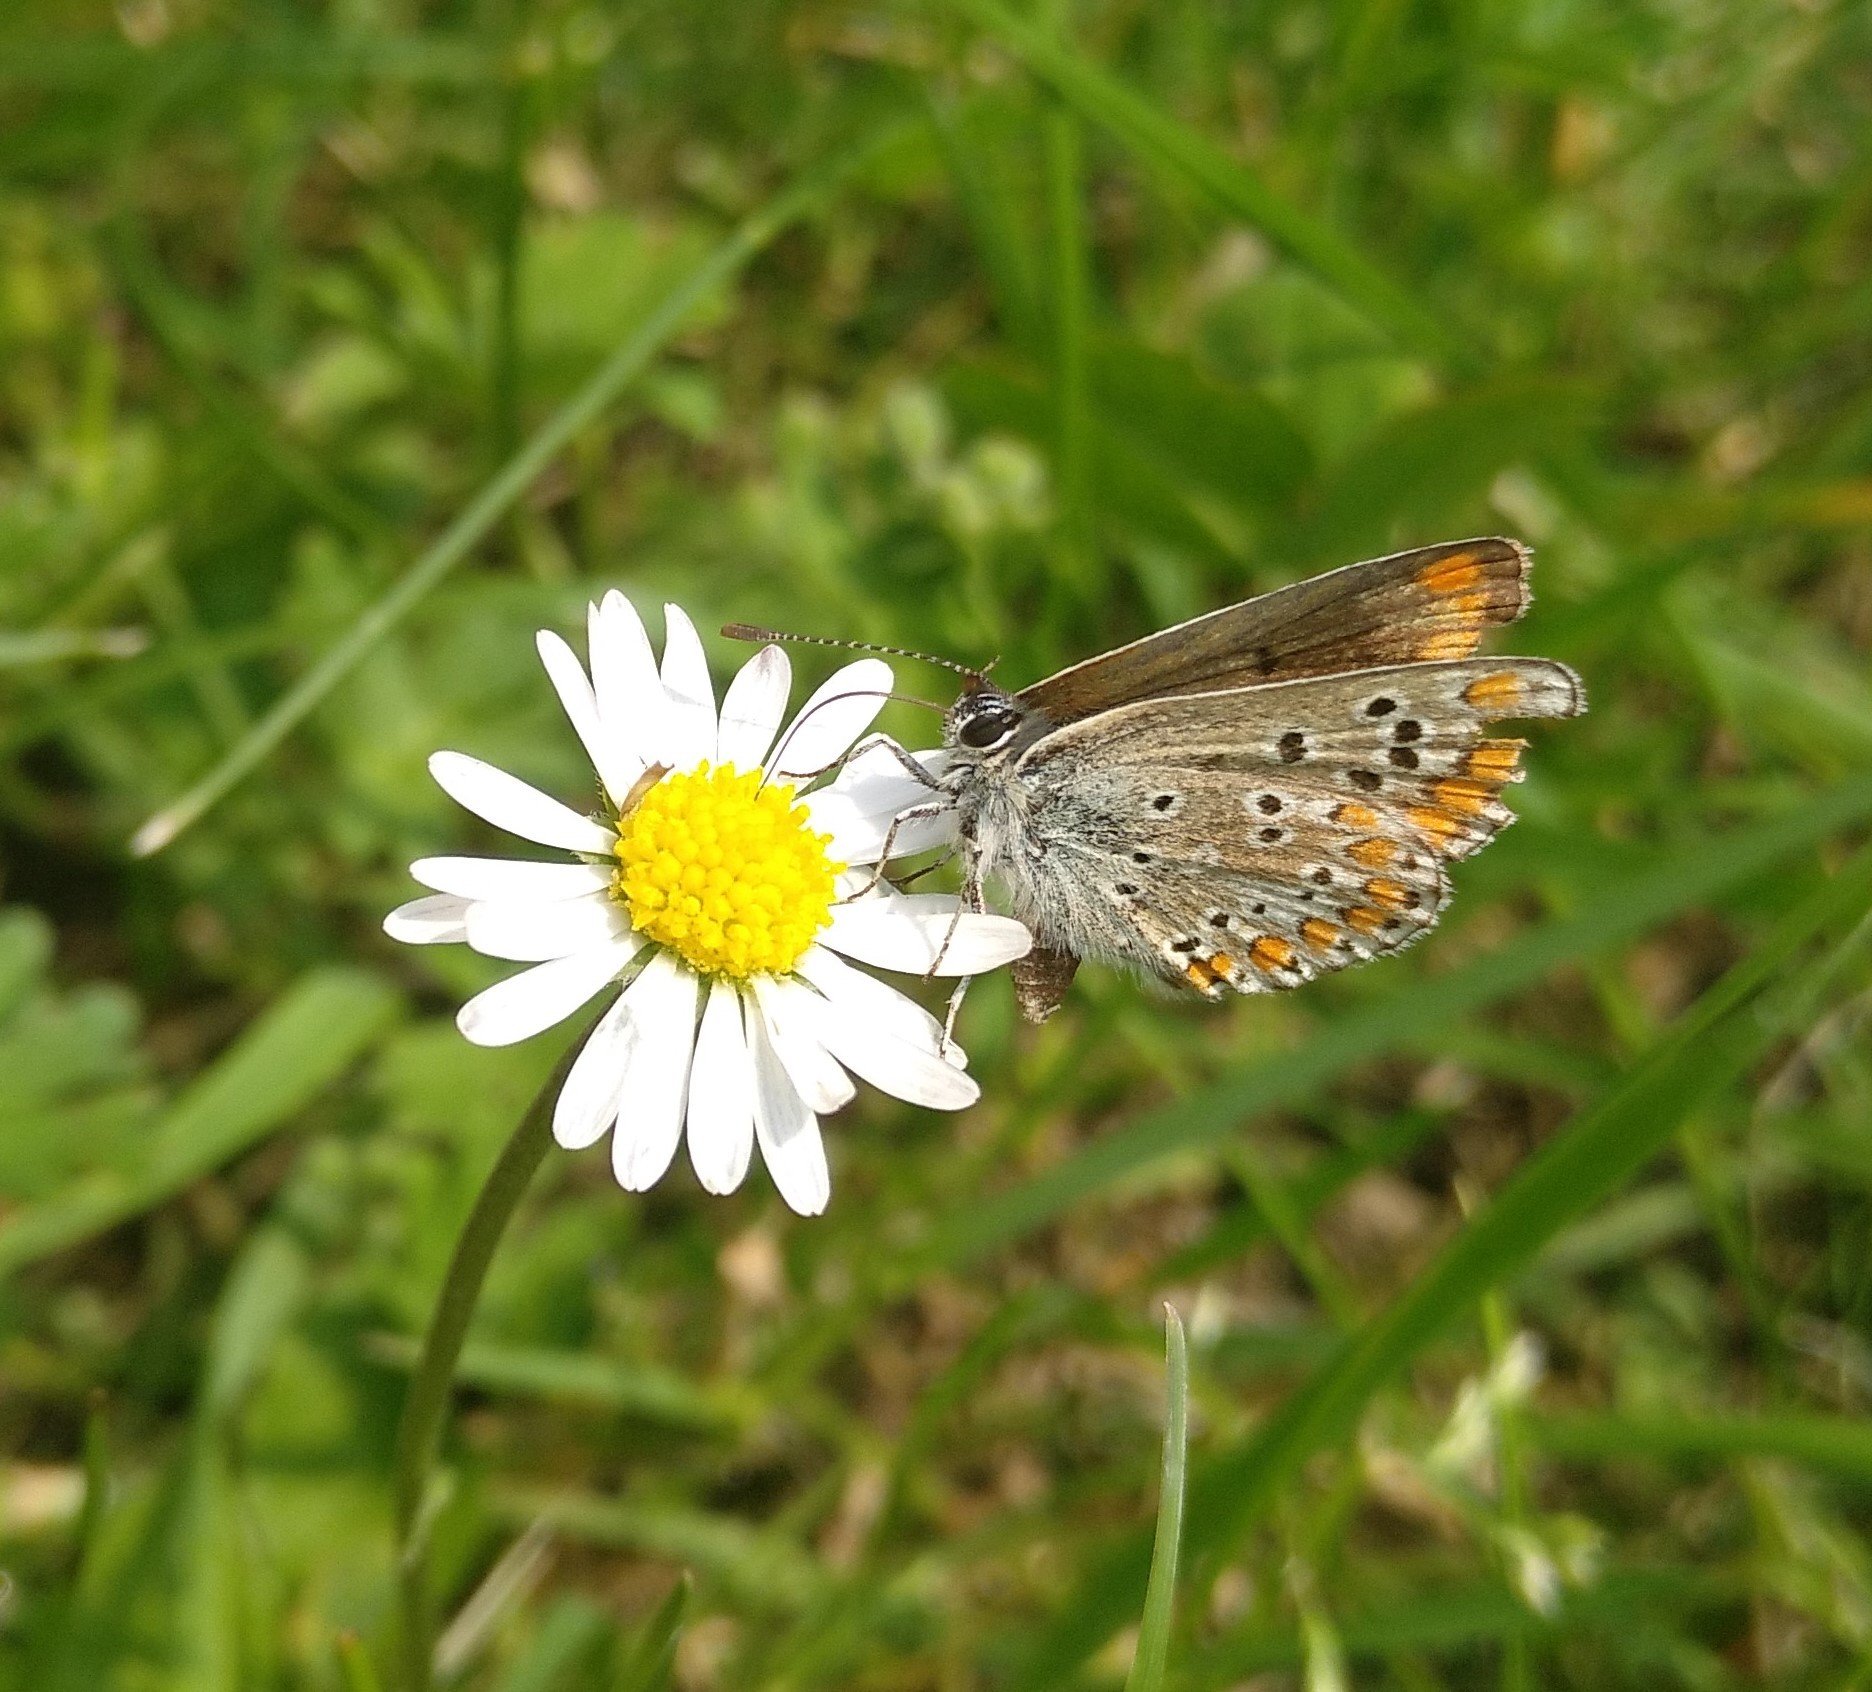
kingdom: Animalia
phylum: Arthropoda
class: Insecta
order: Lepidoptera
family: Lycaenidae
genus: Aricia
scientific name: Aricia agestis
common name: Brown argus
